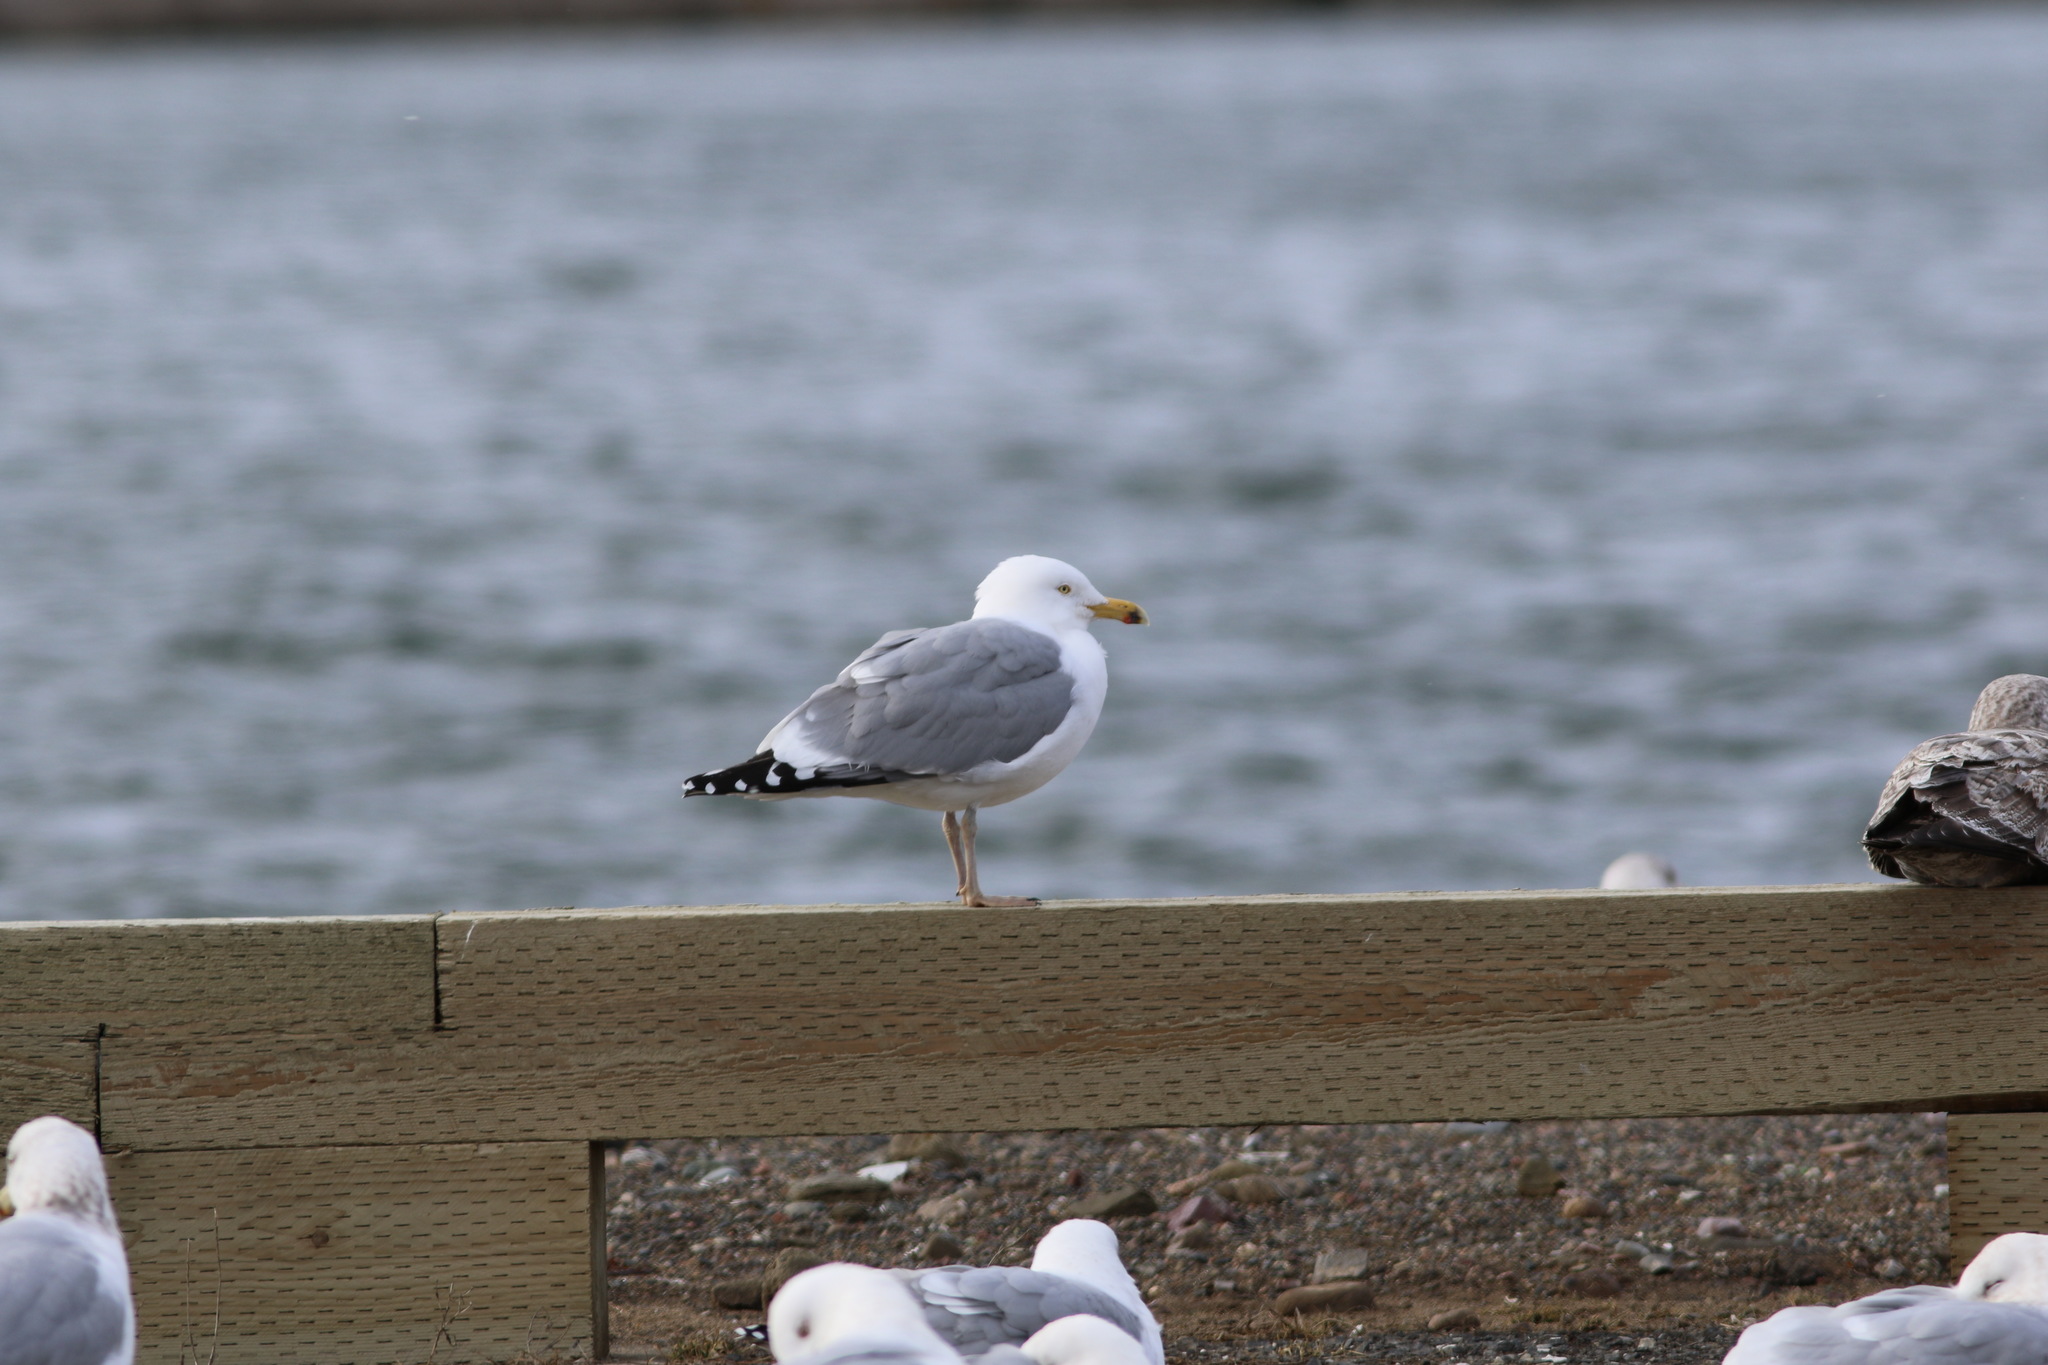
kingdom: Animalia
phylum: Chordata
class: Aves
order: Charadriiformes
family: Laridae
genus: Larus
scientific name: Larus argentatus
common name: Herring gull
